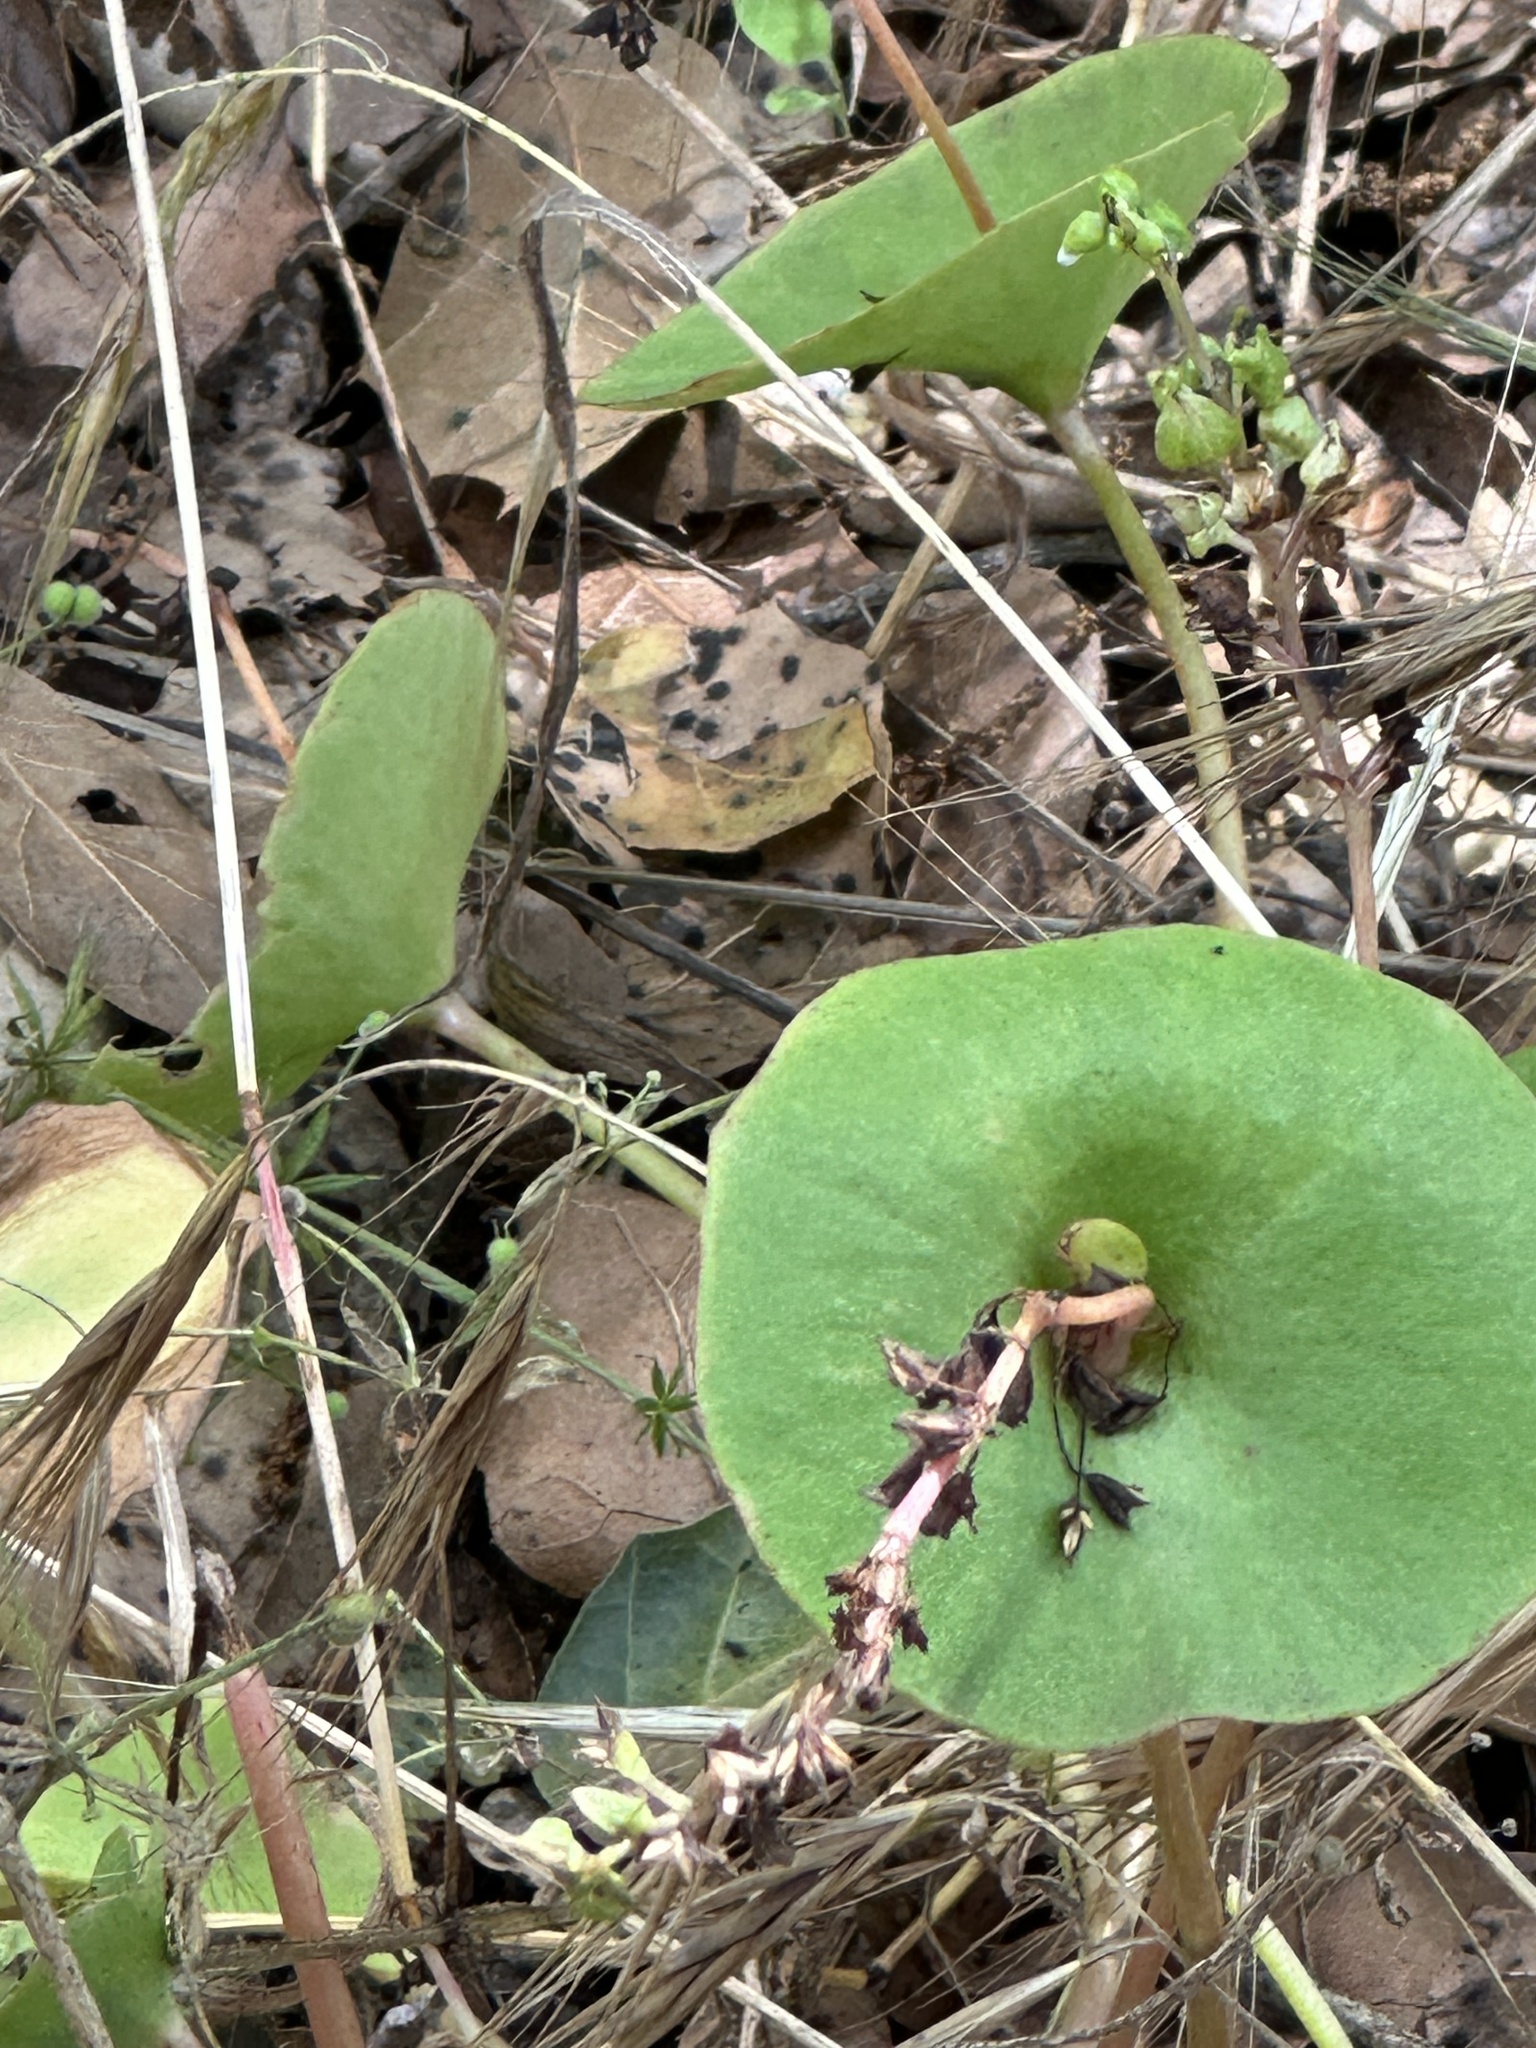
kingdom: Plantae
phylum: Tracheophyta
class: Magnoliopsida
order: Caryophyllales
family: Montiaceae
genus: Claytonia
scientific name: Claytonia perfoliata
